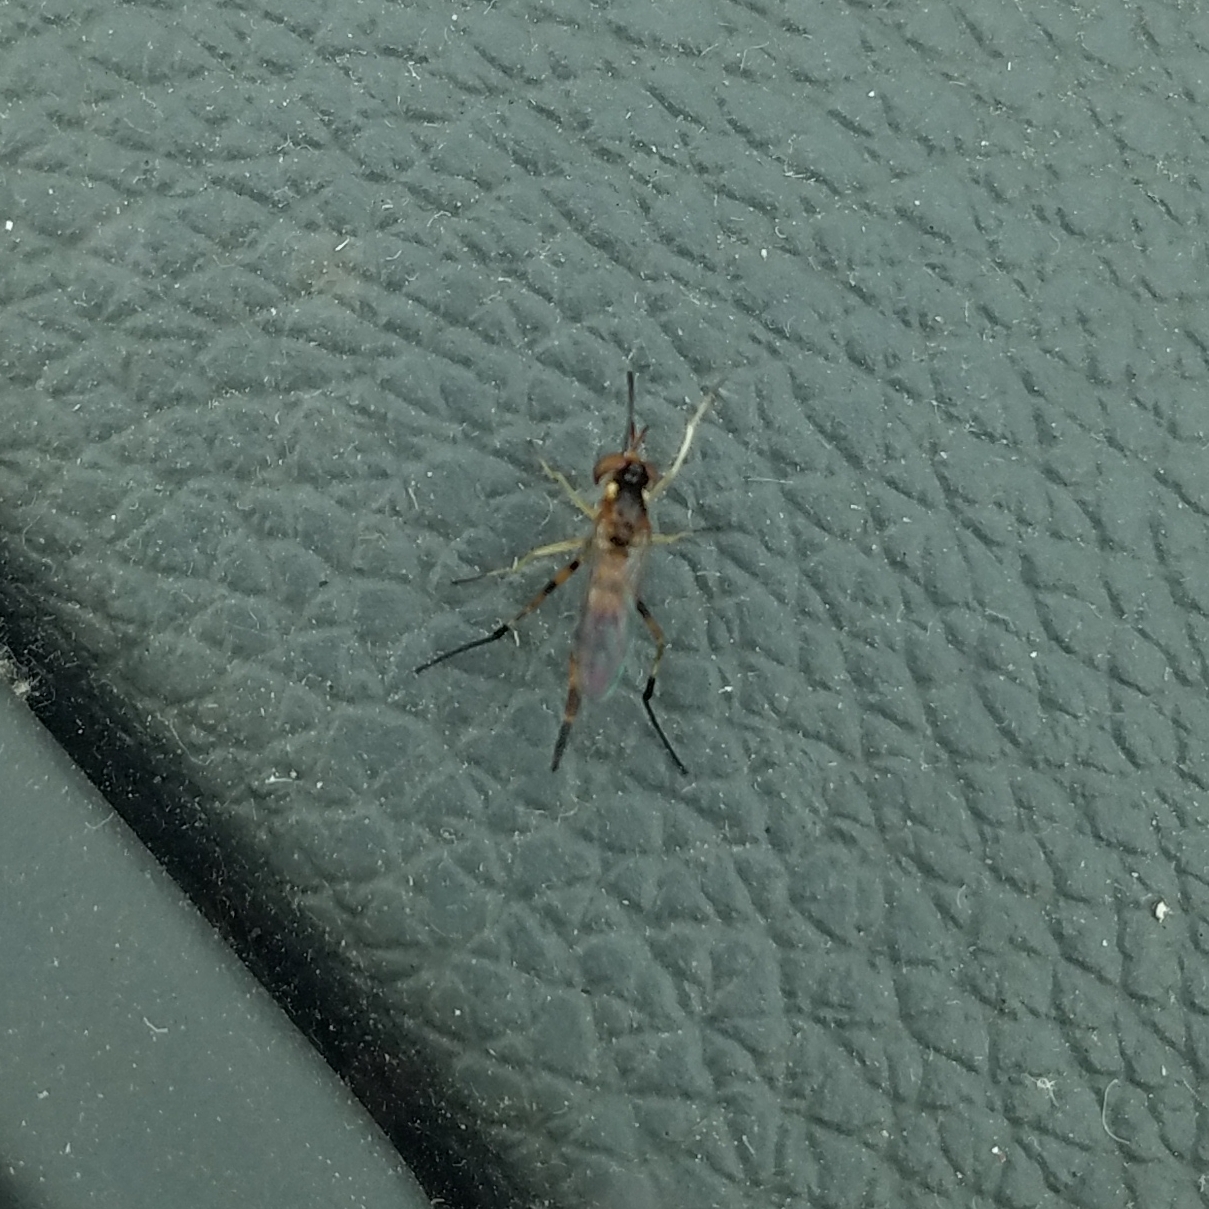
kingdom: Animalia
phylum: Arthropoda
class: Insecta
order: Diptera
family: Conopidae
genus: Stylogaster
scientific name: Stylogaster biannulata
